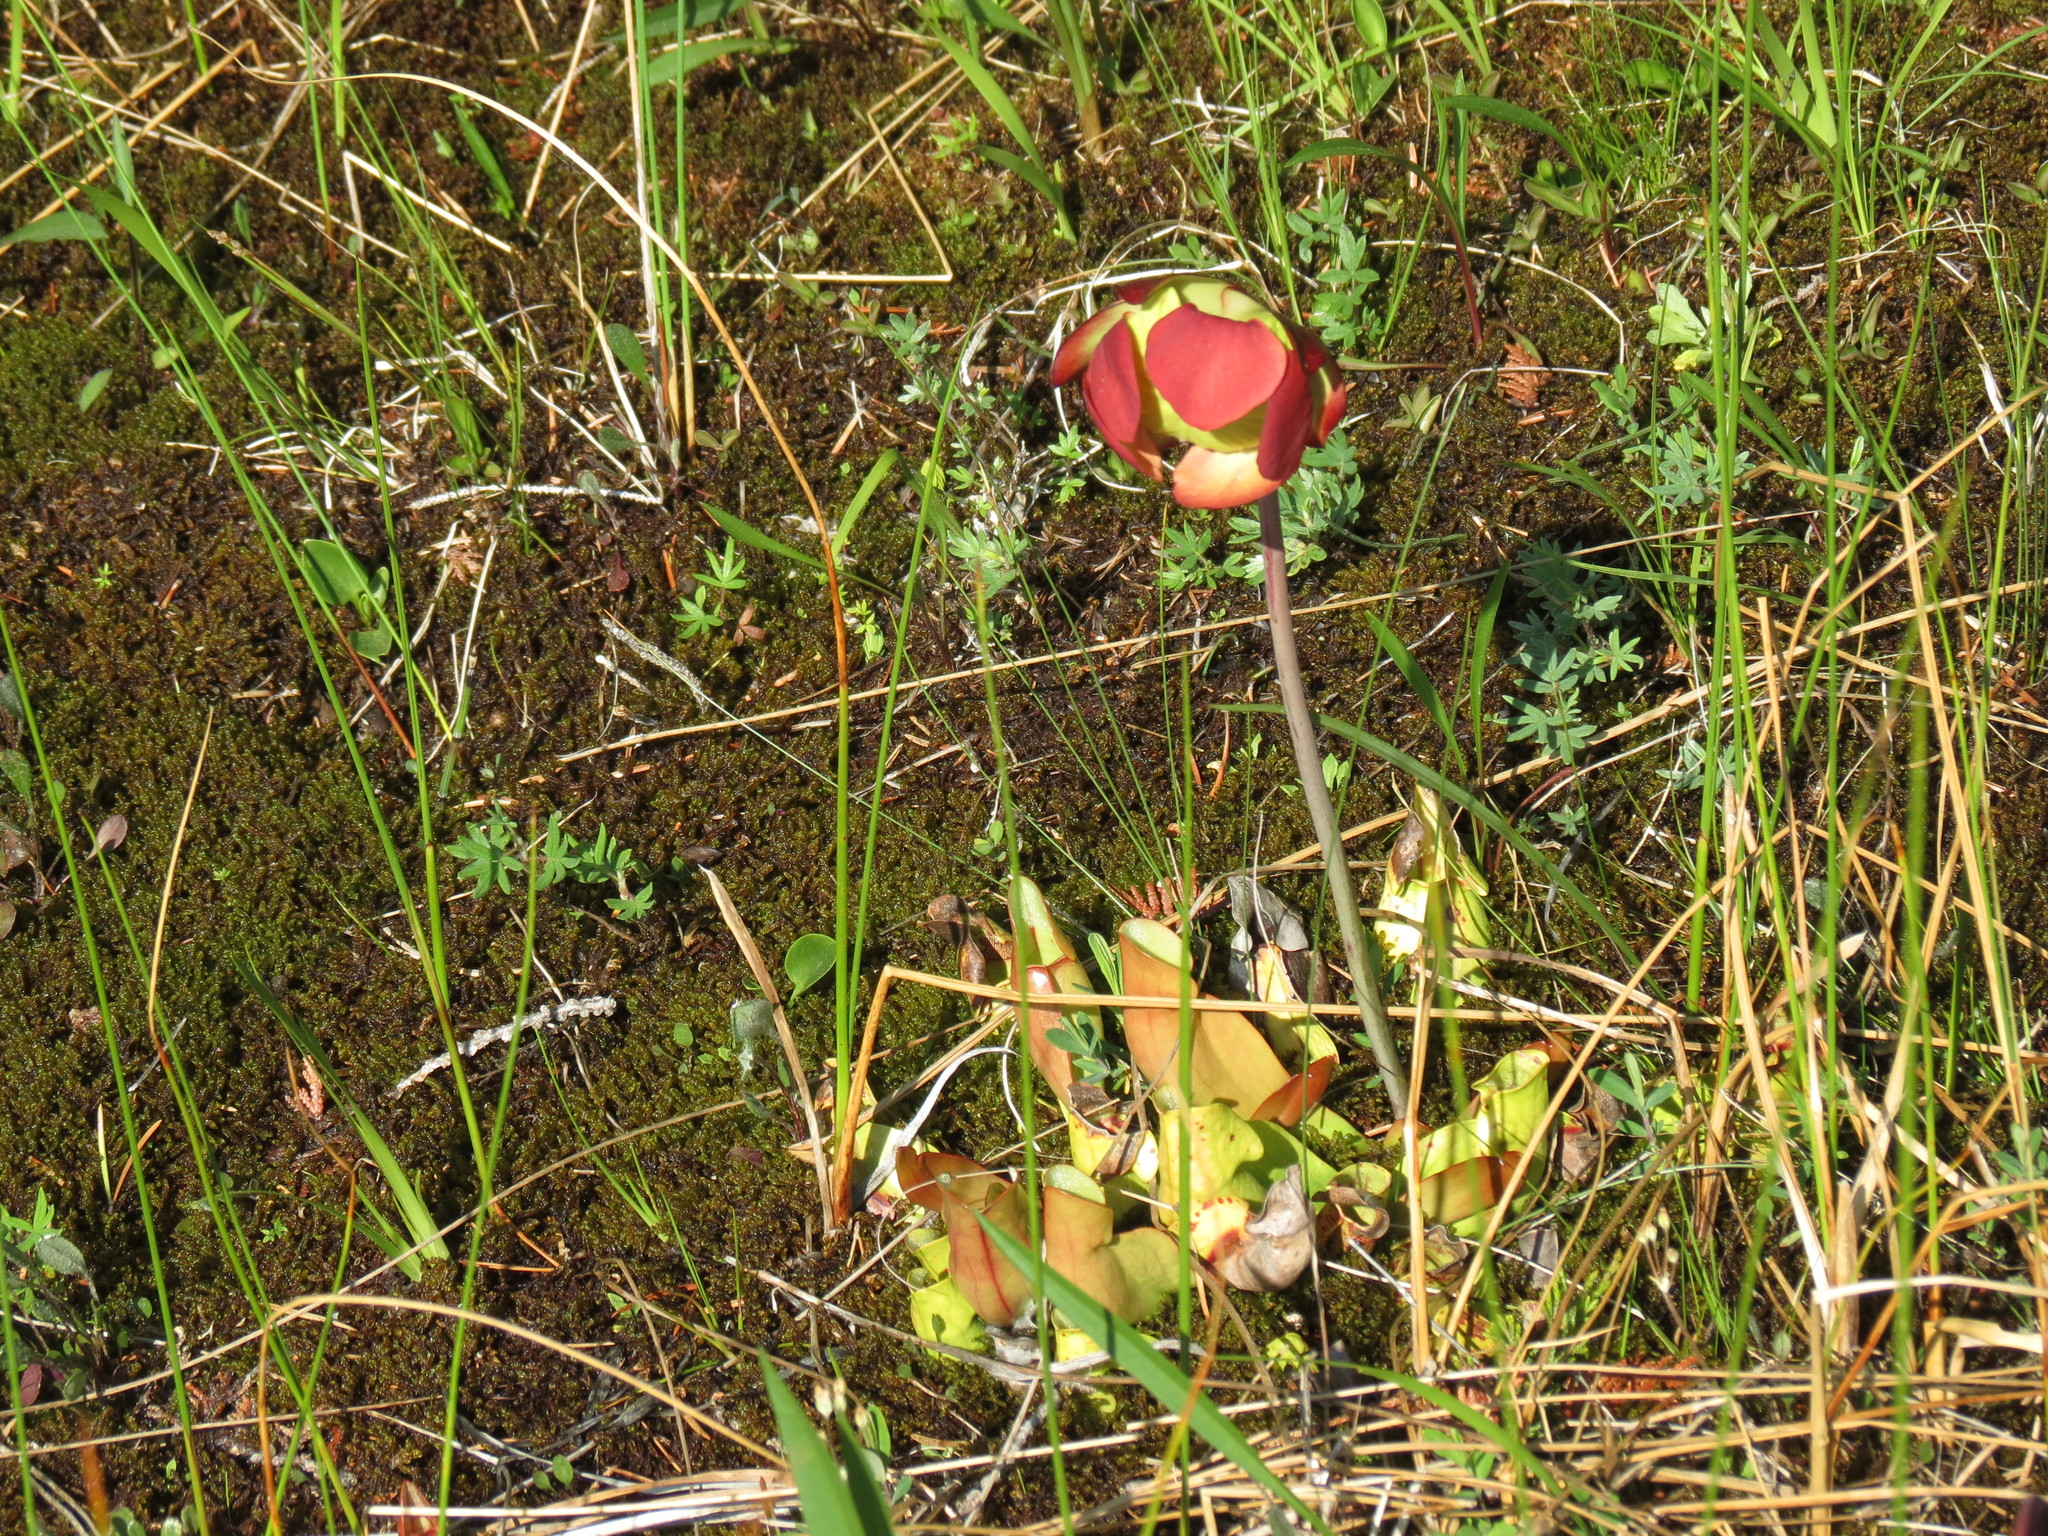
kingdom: Plantae
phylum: Tracheophyta
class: Magnoliopsida
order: Ericales
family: Sarraceniaceae
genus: Sarracenia
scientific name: Sarracenia purpurea
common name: Pitcherplant
